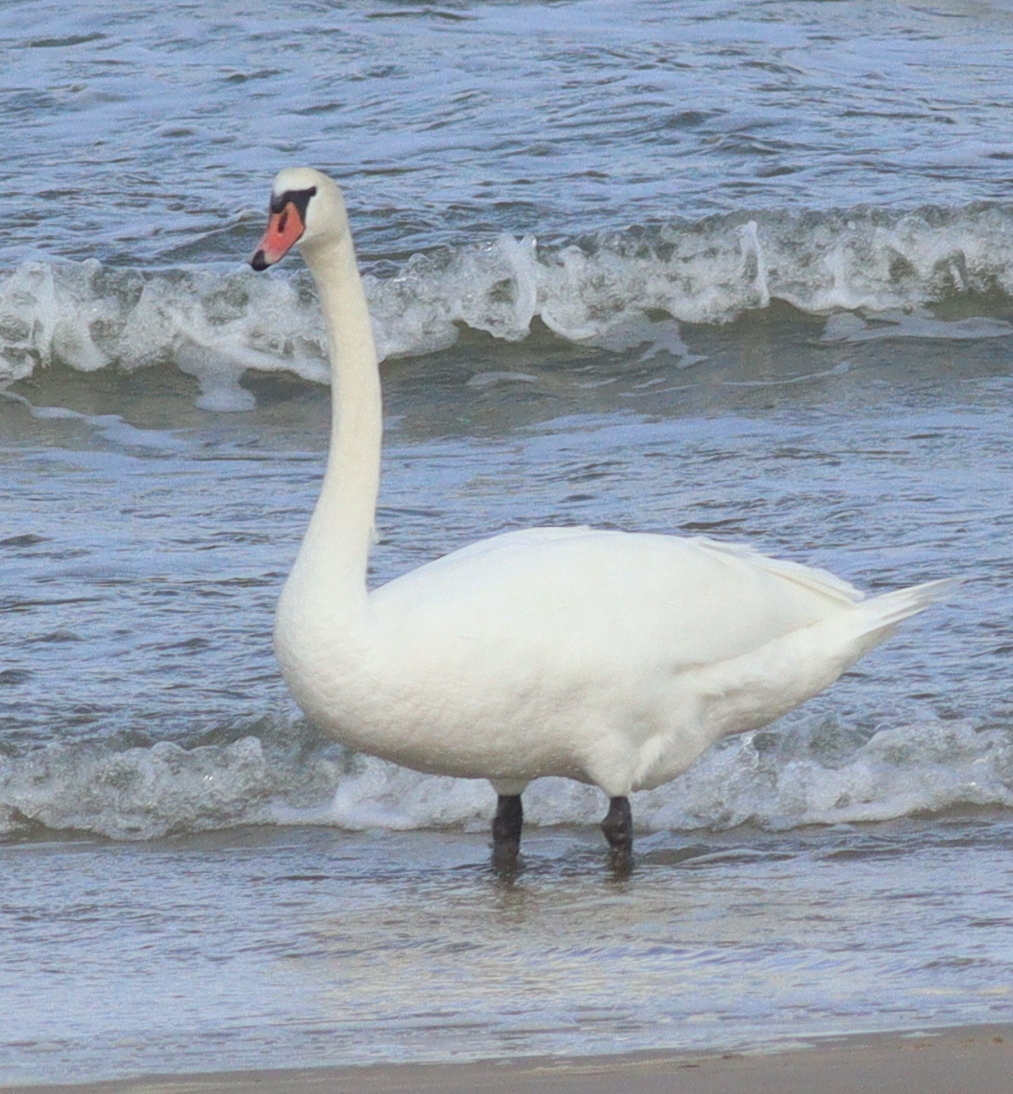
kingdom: Animalia
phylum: Chordata
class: Aves
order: Anseriformes
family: Anatidae
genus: Cygnus
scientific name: Cygnus olor
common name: Mute swan
